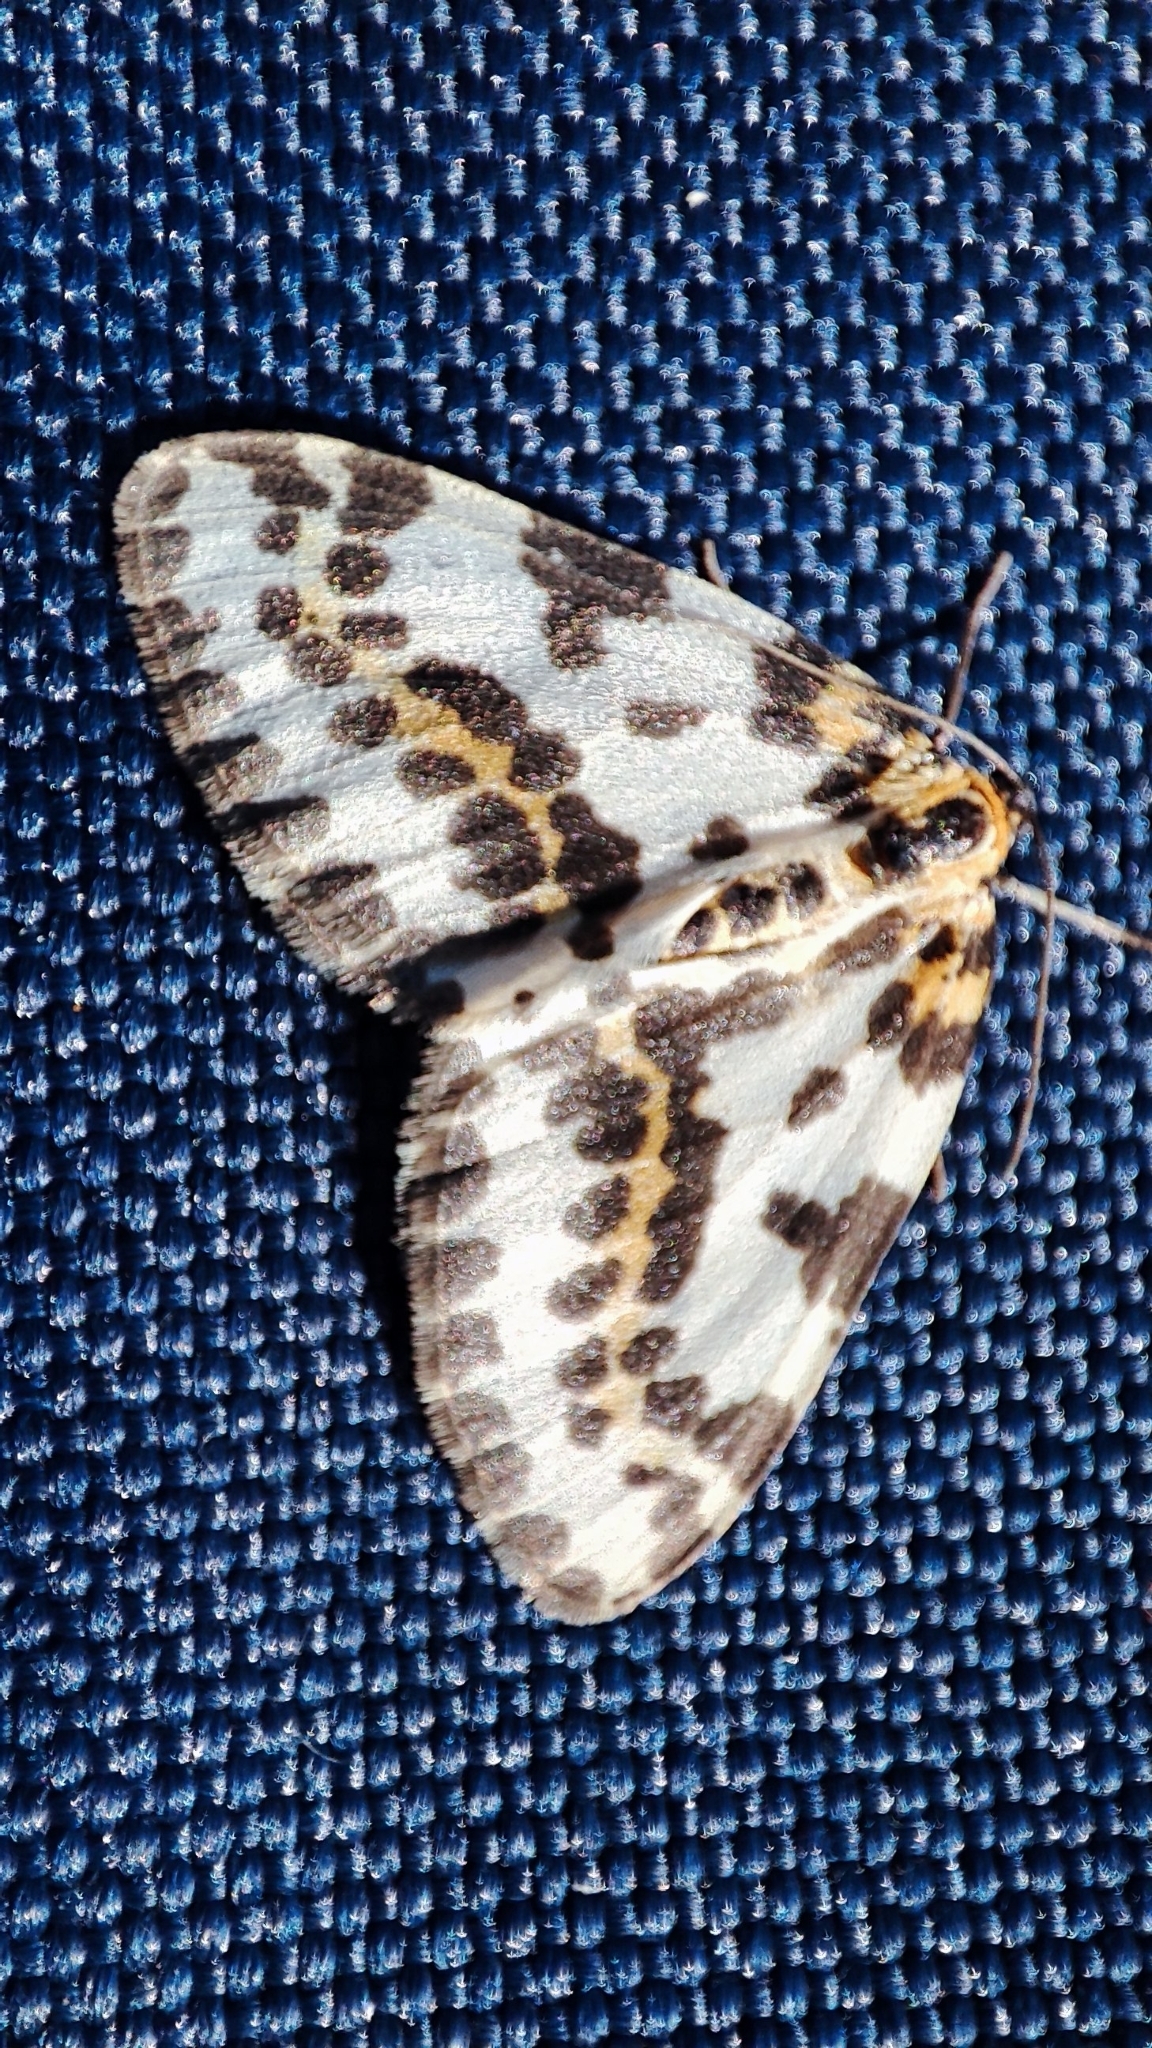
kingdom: Animalia
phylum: Arthropoda
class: Insecta
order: Lepidoptera
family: Geometridae
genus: Abraxas
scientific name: Abraxas grossulariata
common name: Magpie
